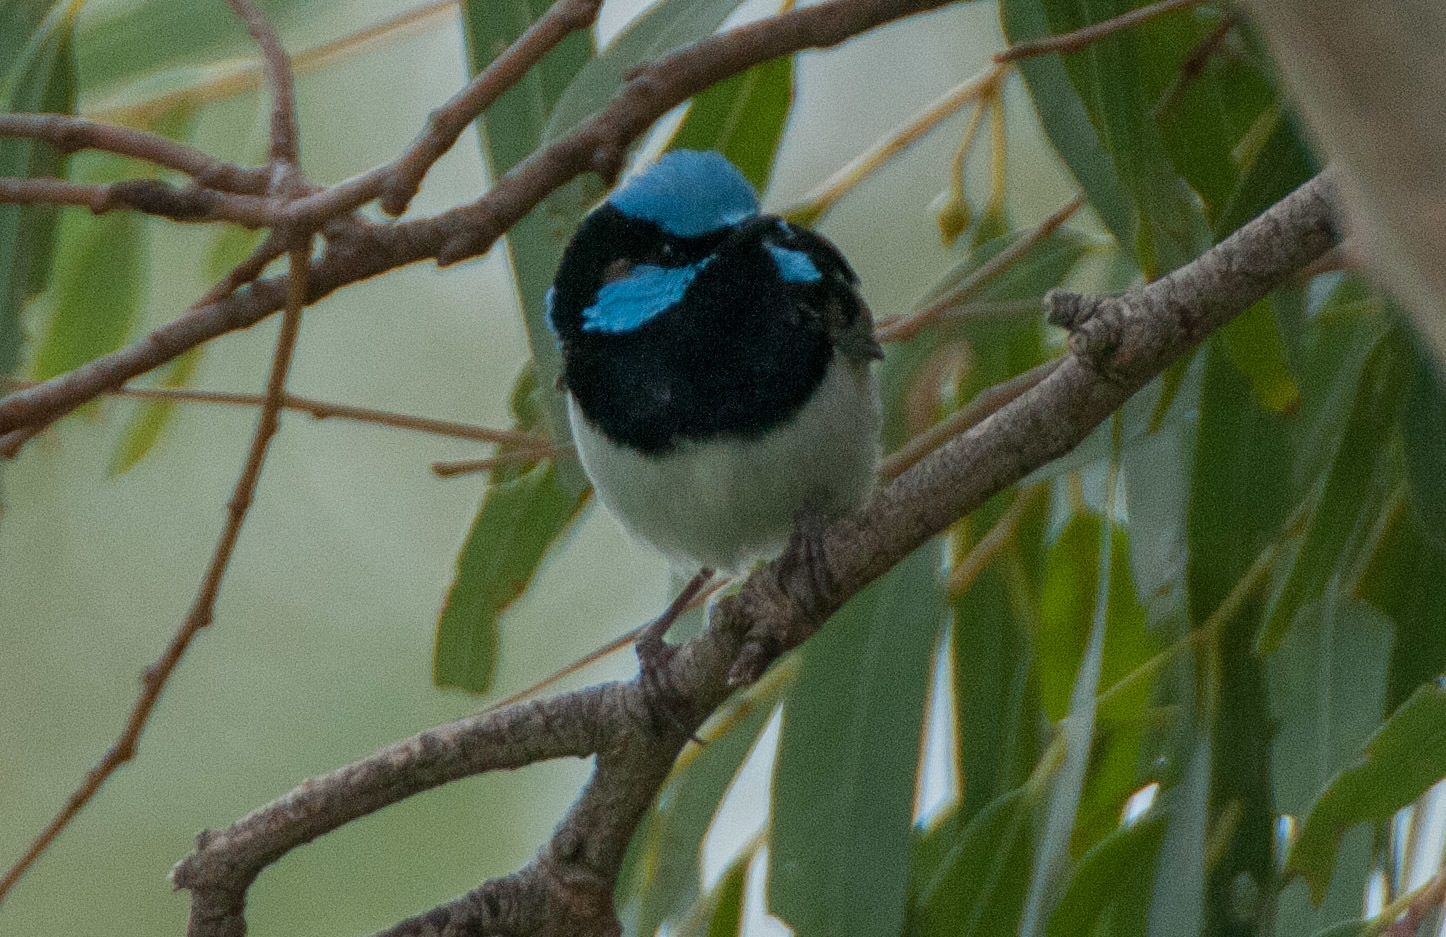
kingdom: Animalia
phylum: Chordata
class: Aves
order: Passeriformes
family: Maluridae
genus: Malurus
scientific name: Malurus cyaneus
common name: Superb fairywren
